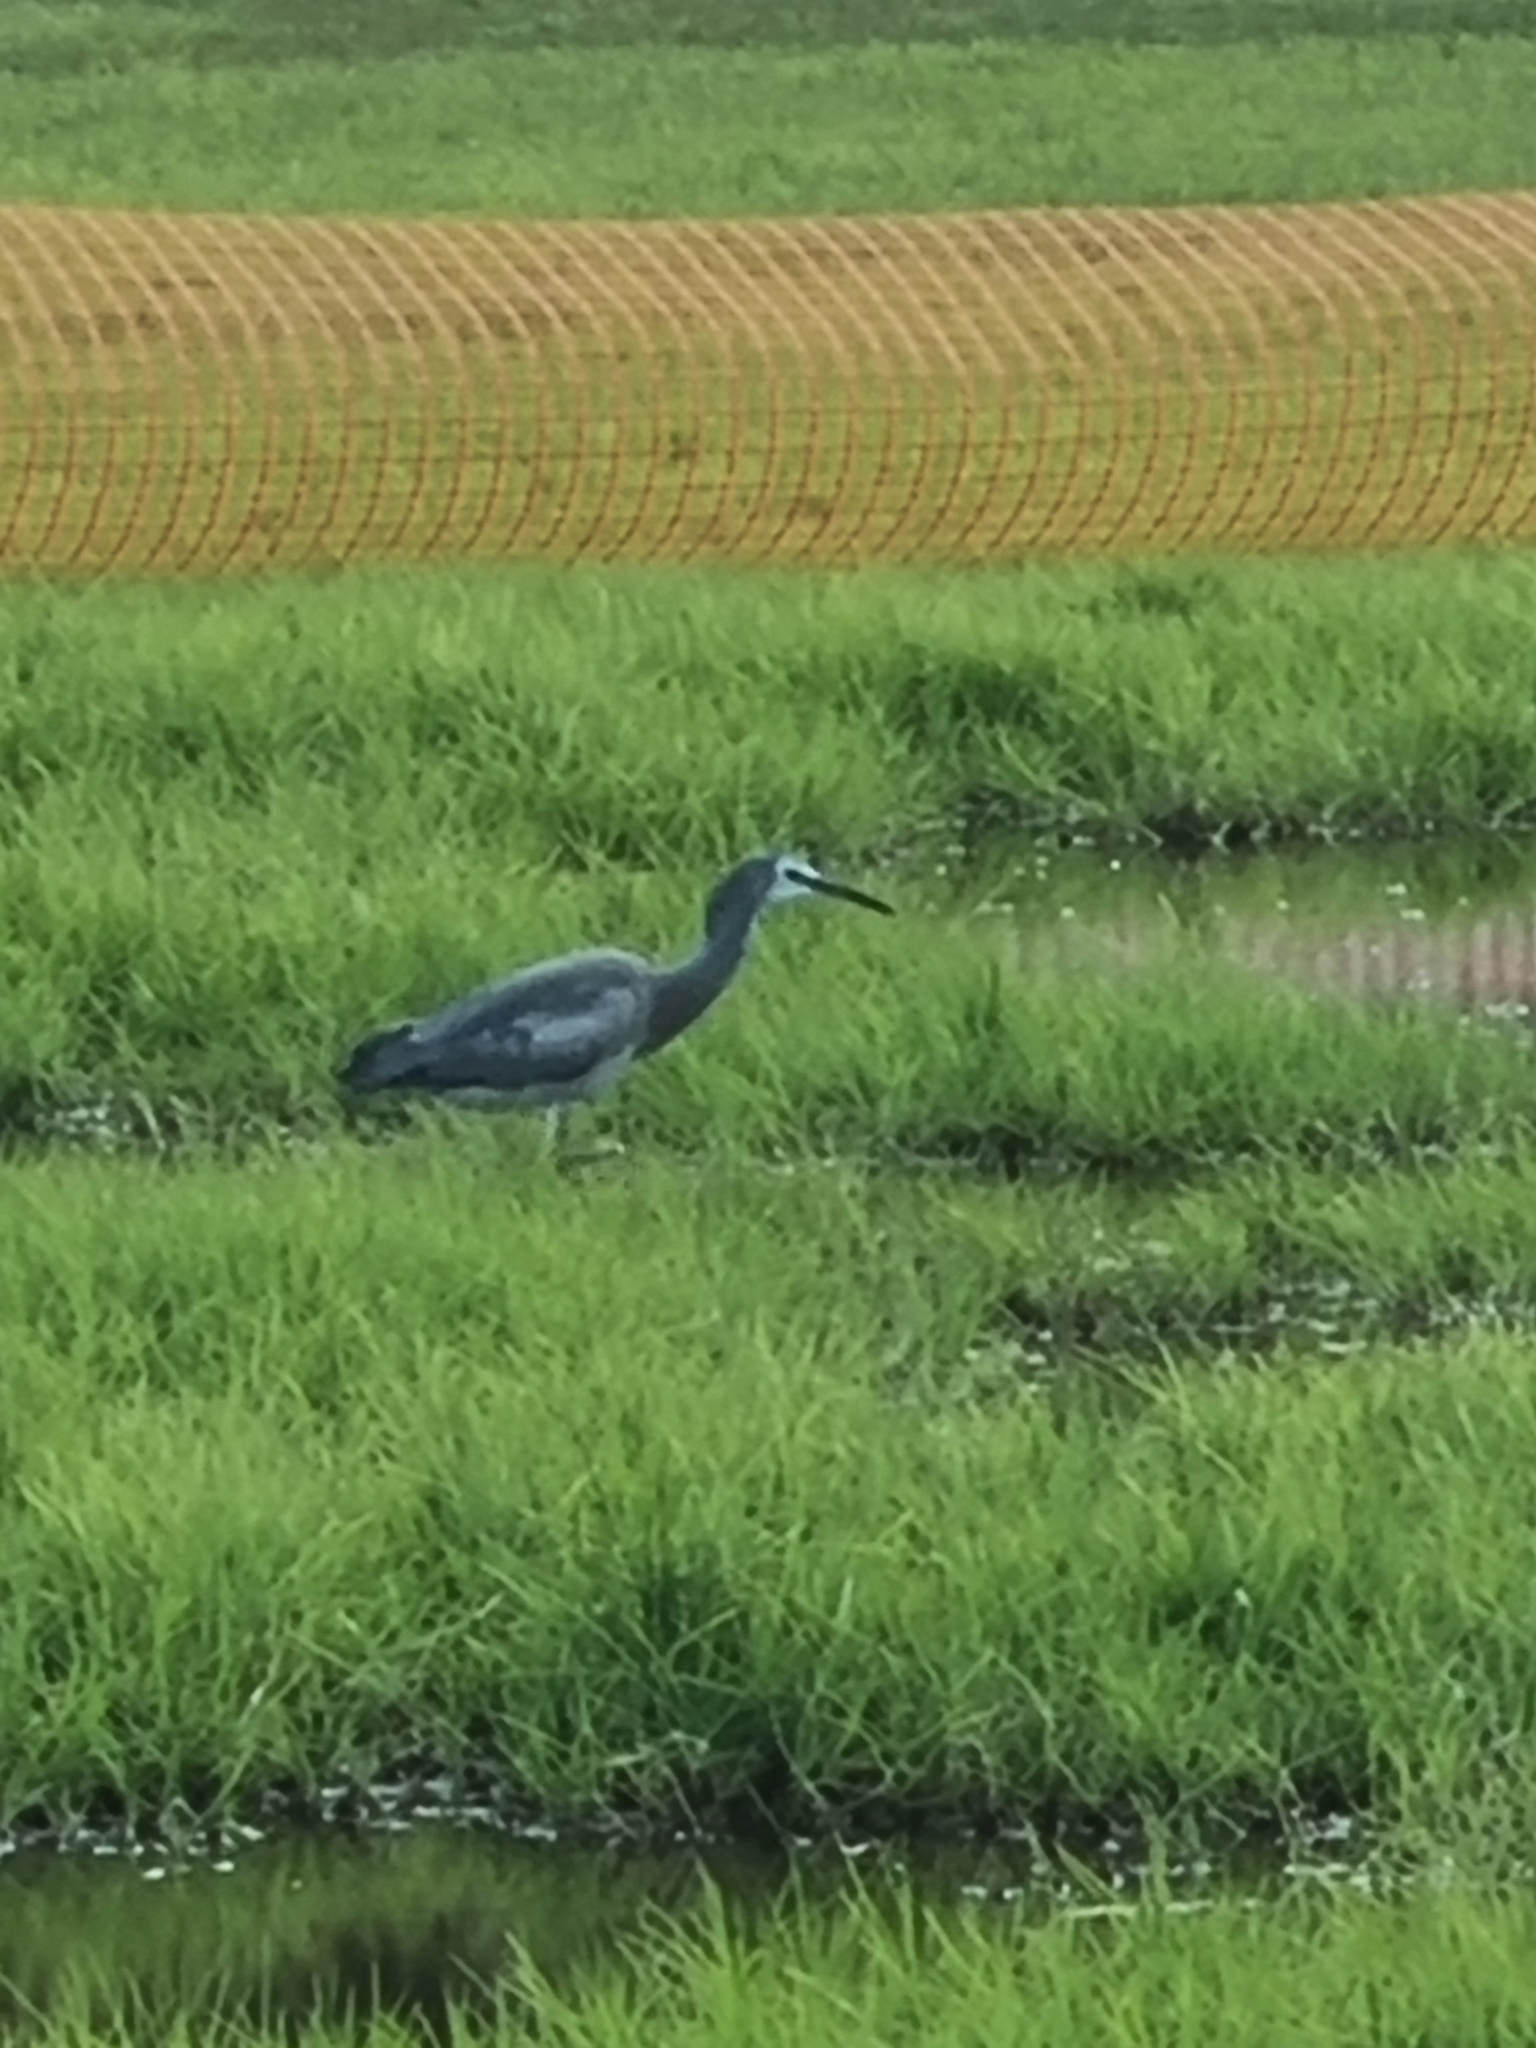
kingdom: Animalia
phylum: Chordata
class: Aves
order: Pelecaniformes
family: Ardeidae
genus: Egretta
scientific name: Egretta novaehollandiae
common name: White-faced heron
